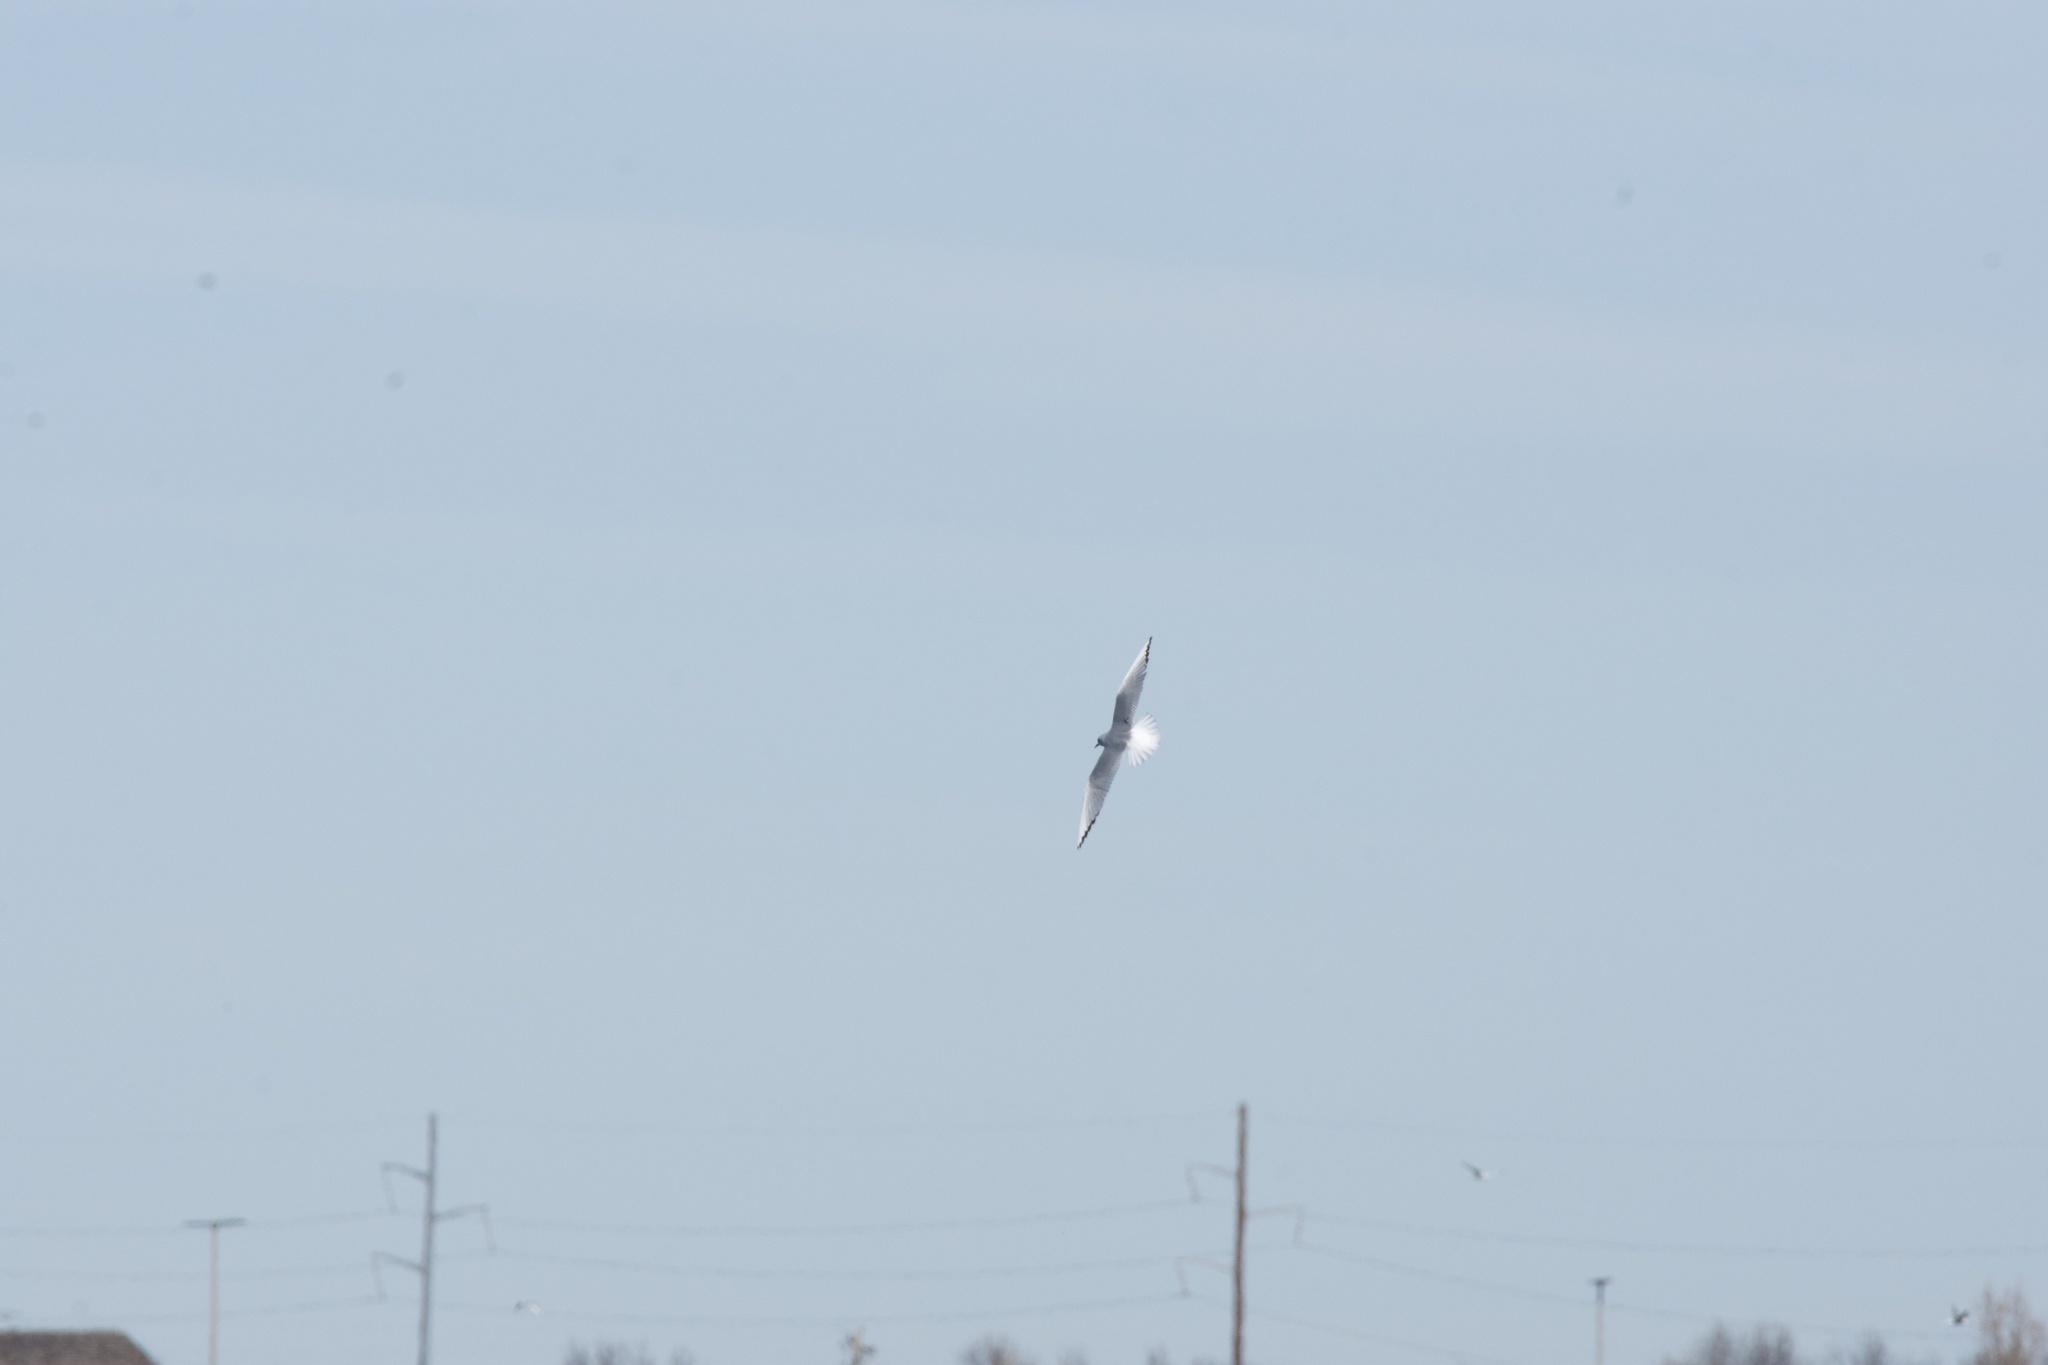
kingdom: Animalia
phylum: Chordata
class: Aves
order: Charadriiformes
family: Laridae
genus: Chroicocephalus
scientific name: Chroicocephalus philadelphia
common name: Bonaparte's gull
